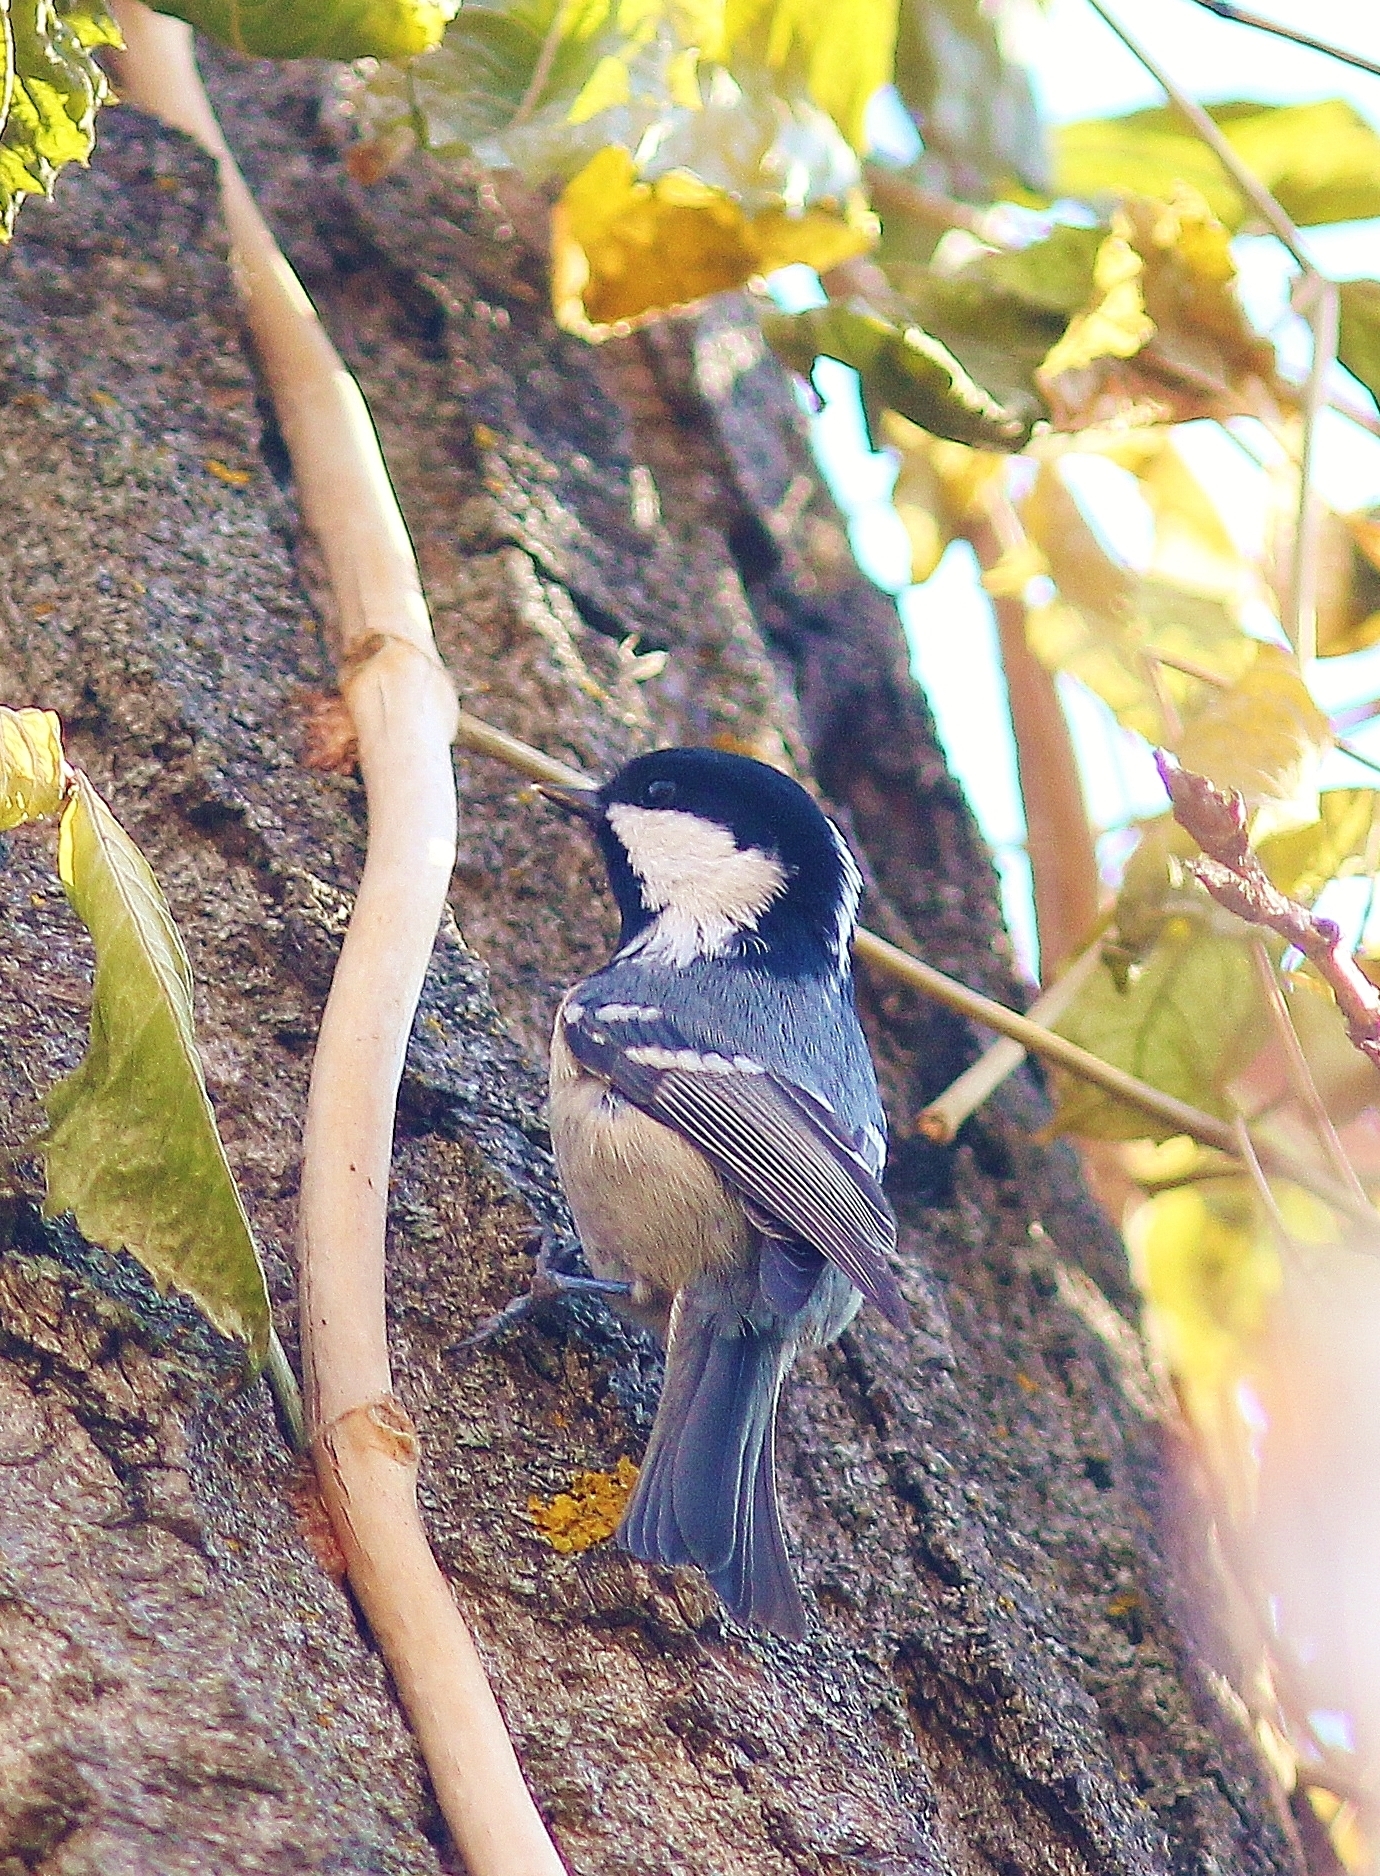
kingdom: Animalia
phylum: Chordata
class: Aves
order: Passeriformes
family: Paridae
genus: Periparus
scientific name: Periparus ater
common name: Coal tit
